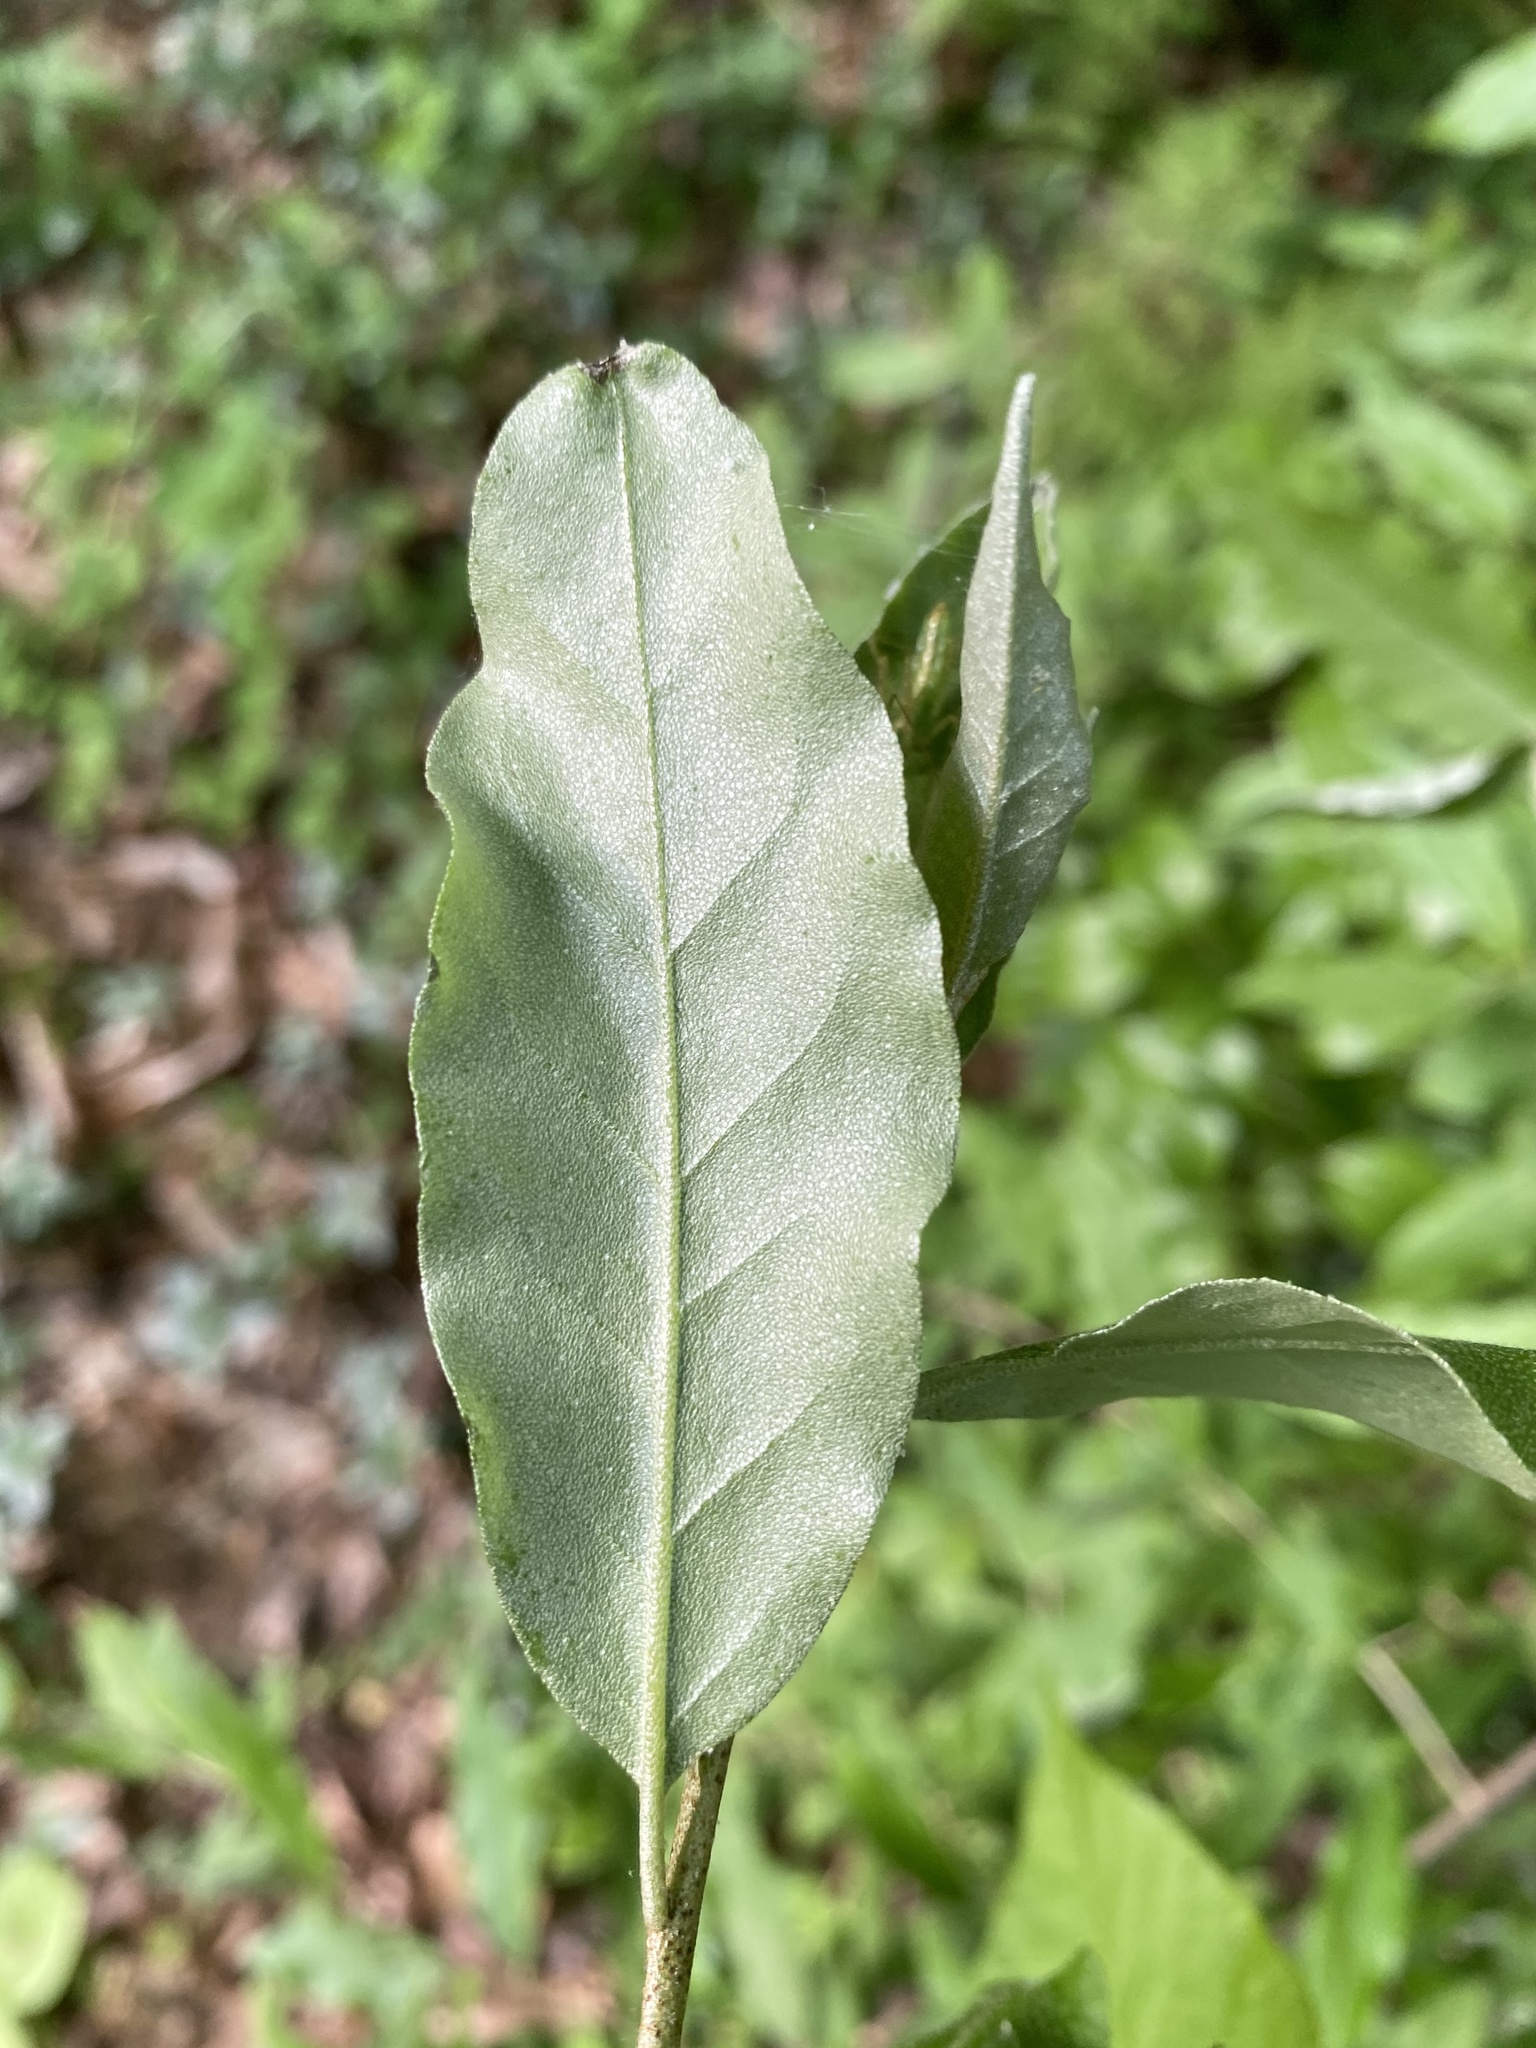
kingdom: Plantae
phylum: Tracheophyta
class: Magnoliopsida
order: Rosales
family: Elaeagnaceae
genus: Elaeagnus
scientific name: Elaeagnus umbellata
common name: Autumn olive
